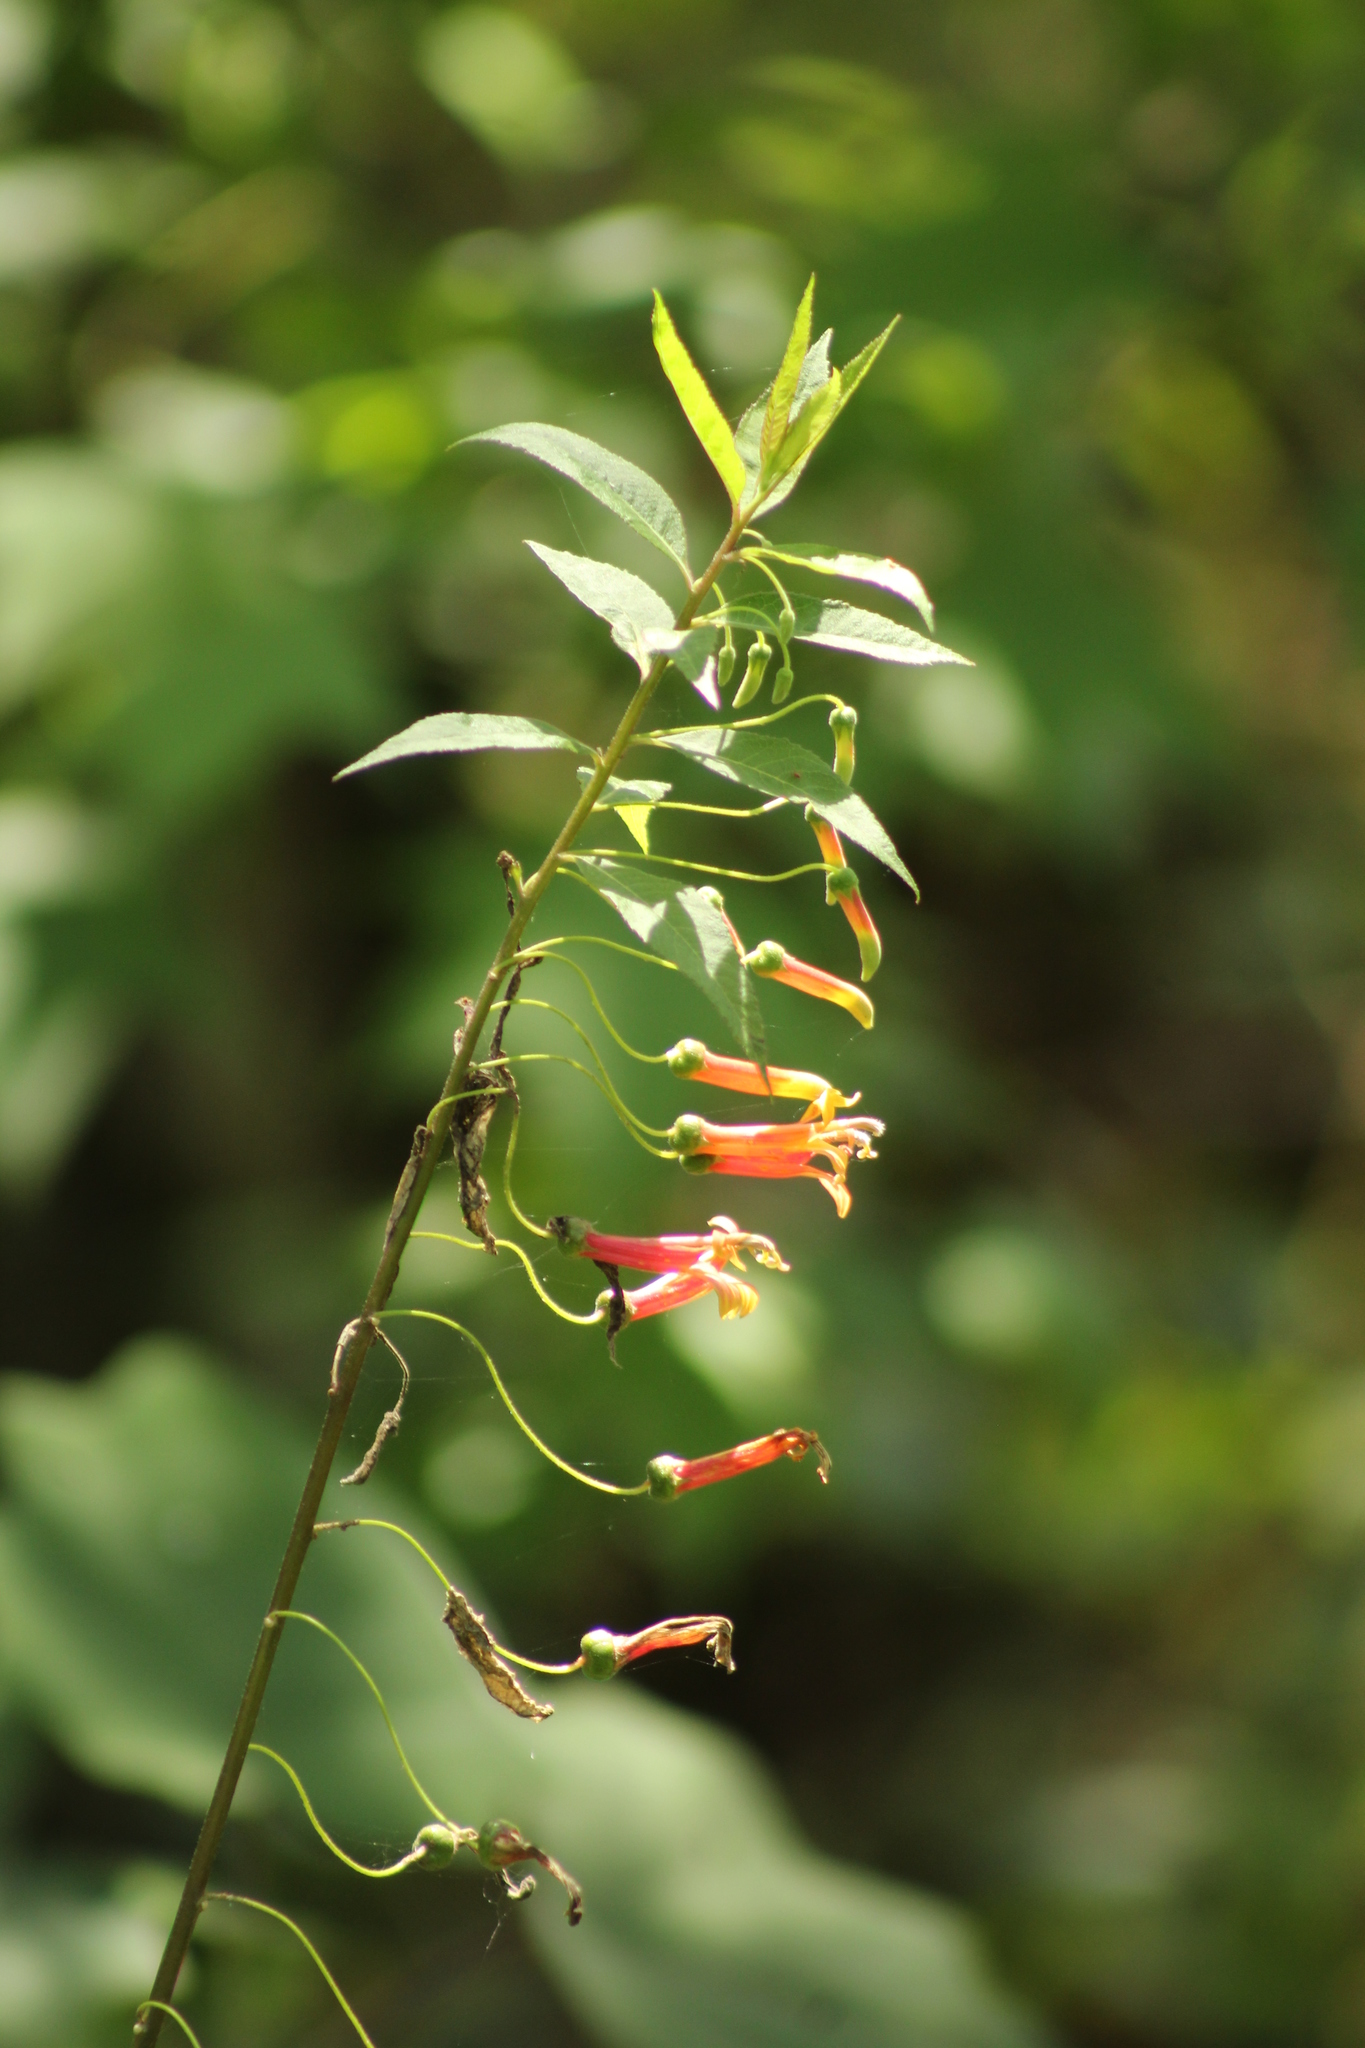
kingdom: Plantae
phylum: Tracheophyta
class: Magnoliopsida
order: Asterales
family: Campanulaceae
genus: Lobelia
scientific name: Lobelia laxiflora
